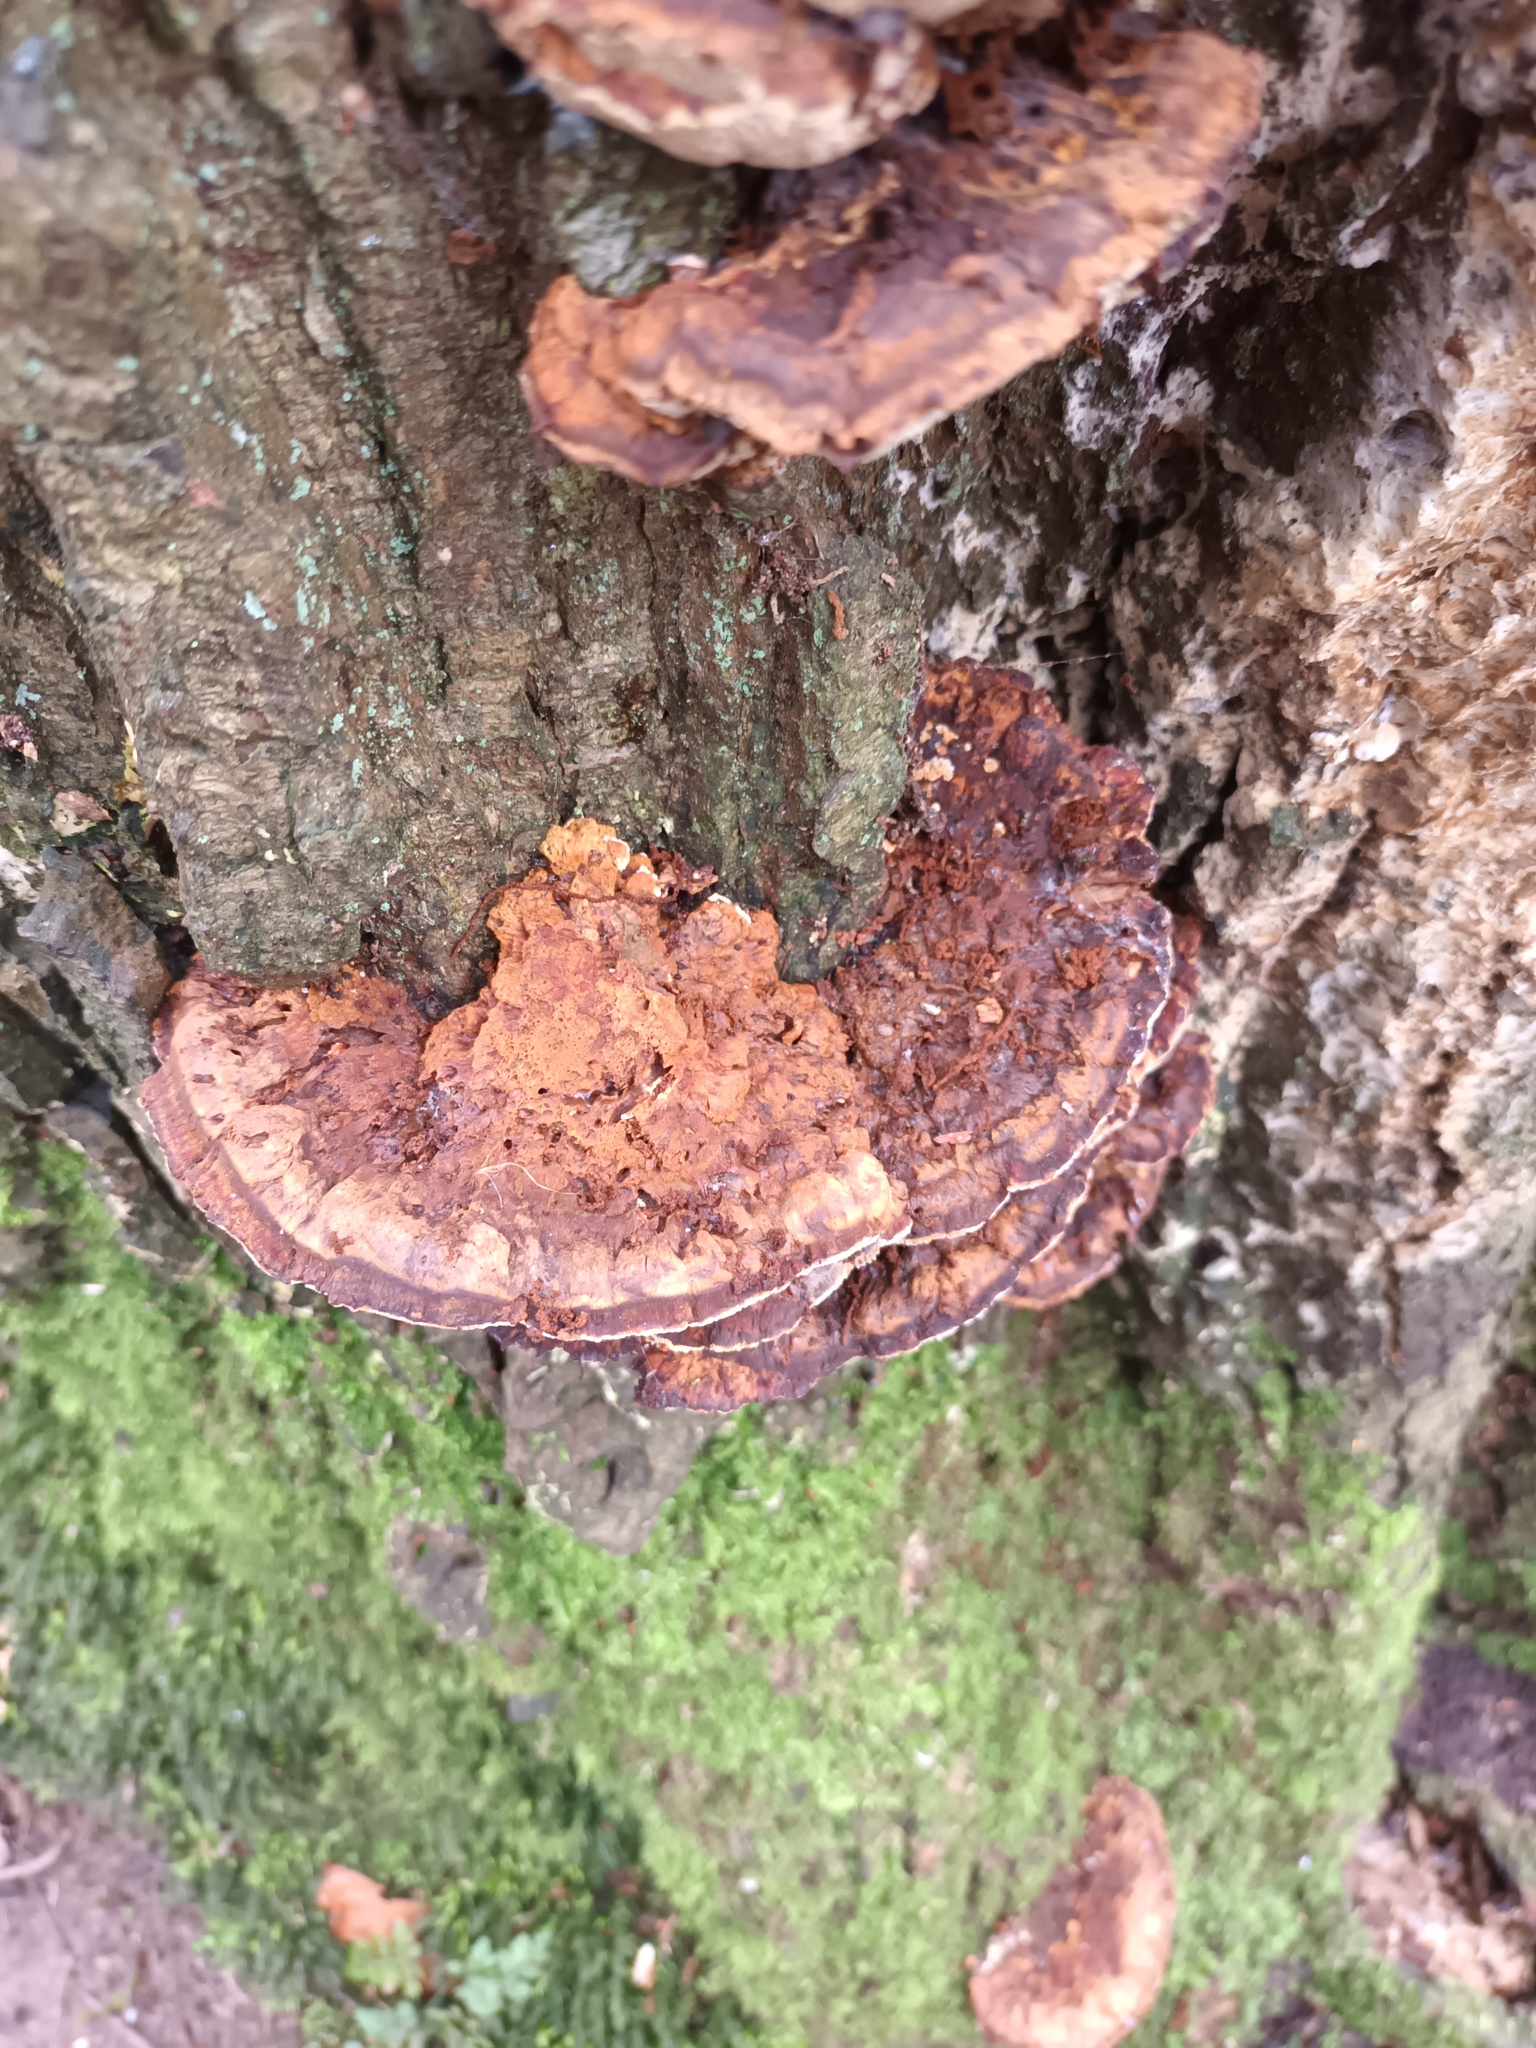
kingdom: Fungi
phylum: Basidiomycota
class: Agaricomycetes
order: Hymenochaetales
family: Hymenochaetaceae
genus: Xanthoporia
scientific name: Xanthoporia radiata
